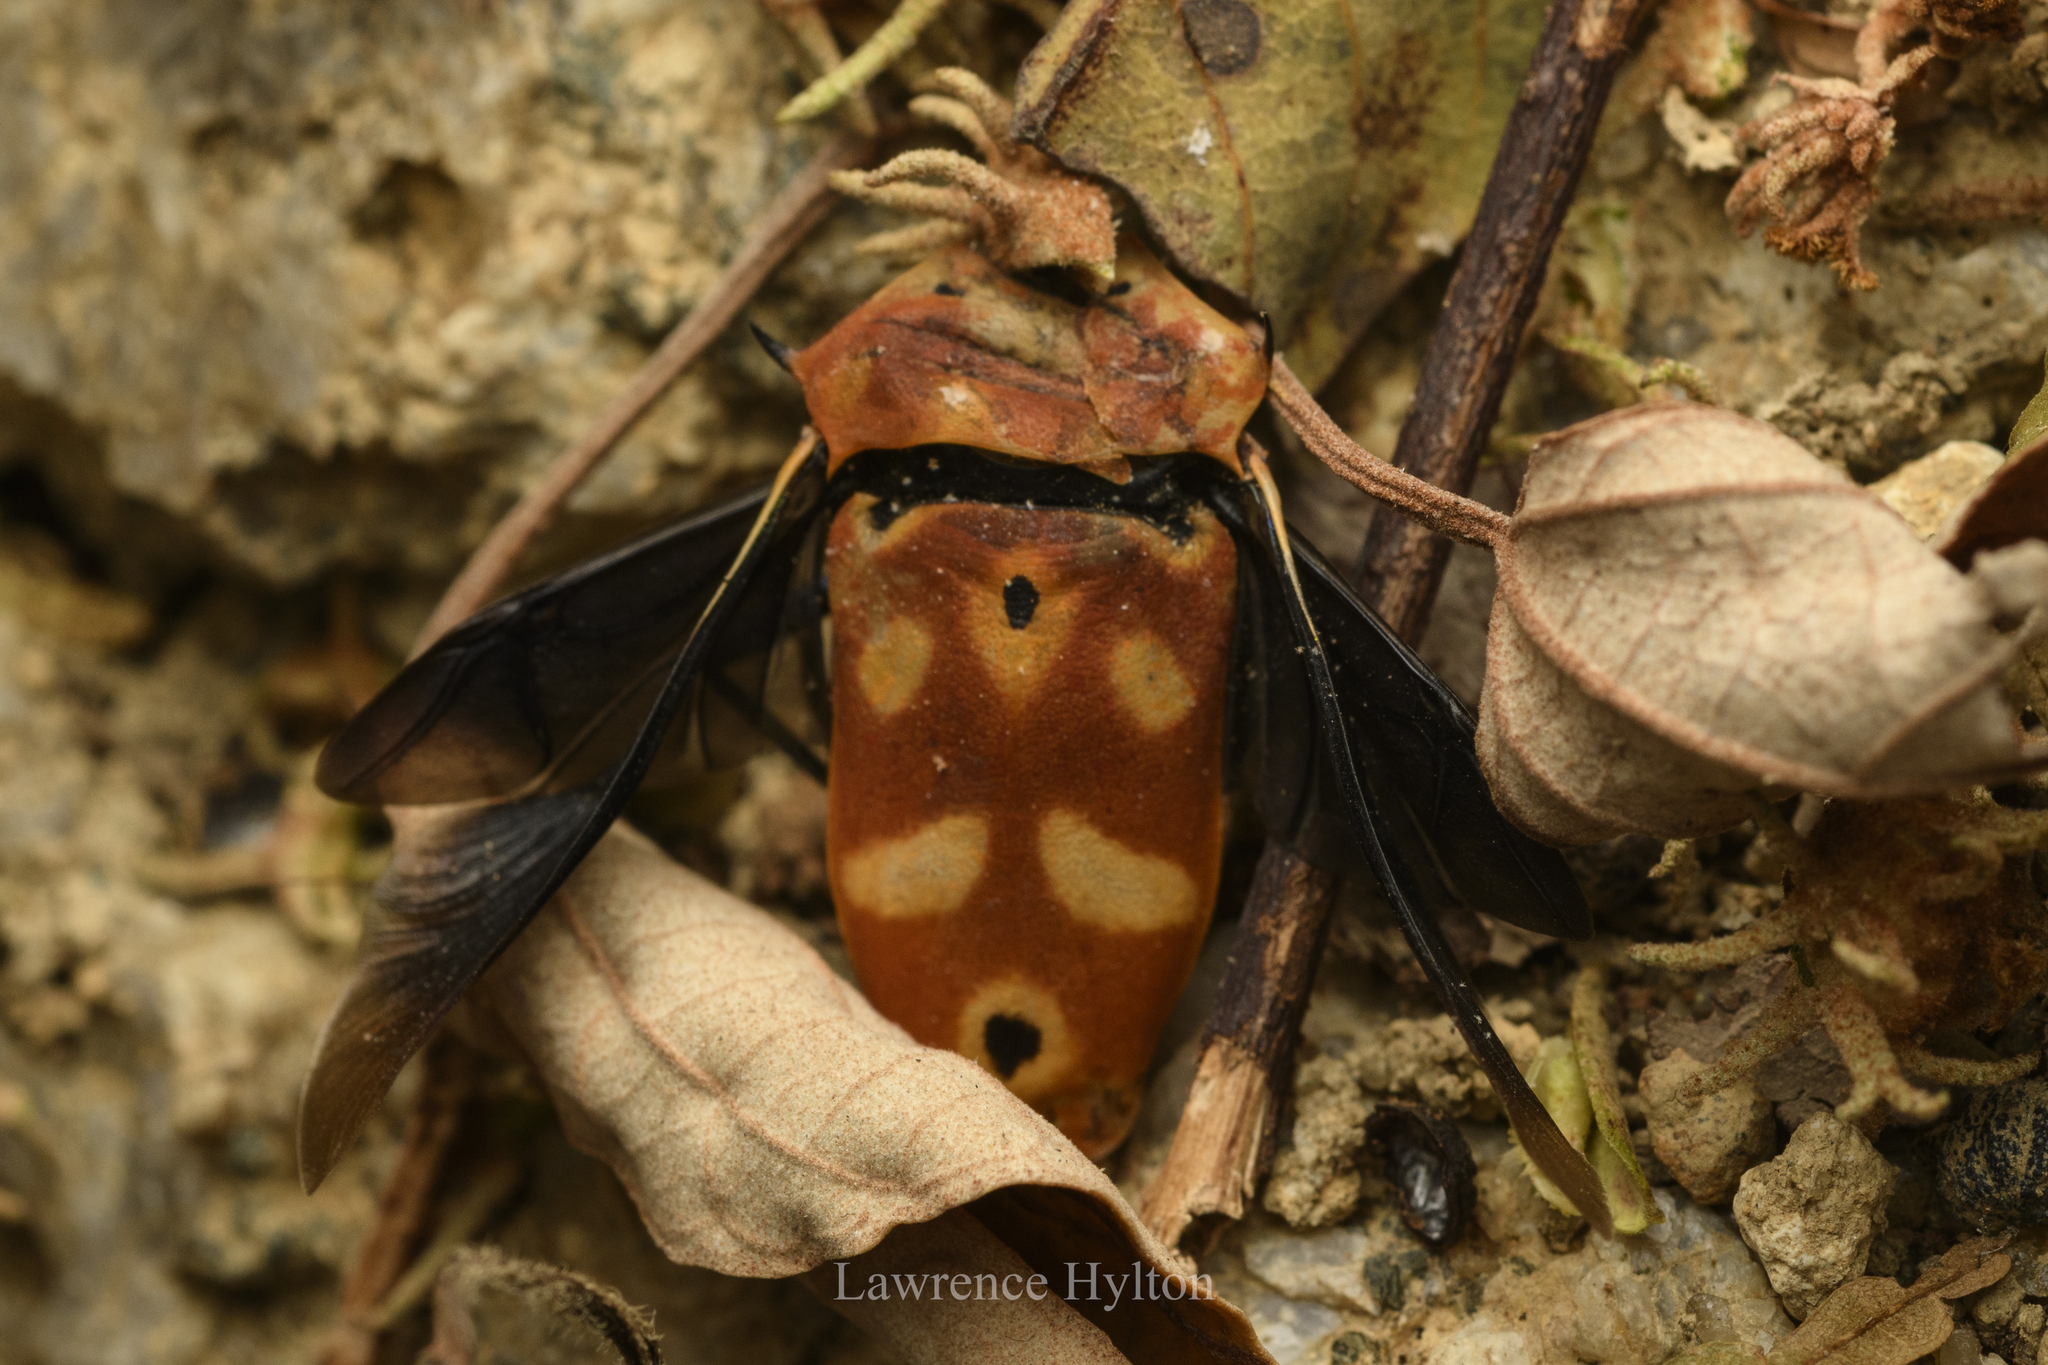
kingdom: Animalia
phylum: Arthropoda
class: Insecta
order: Hemiptera
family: Scutelleridae
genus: Cantao
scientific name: Cantao ocellatus
